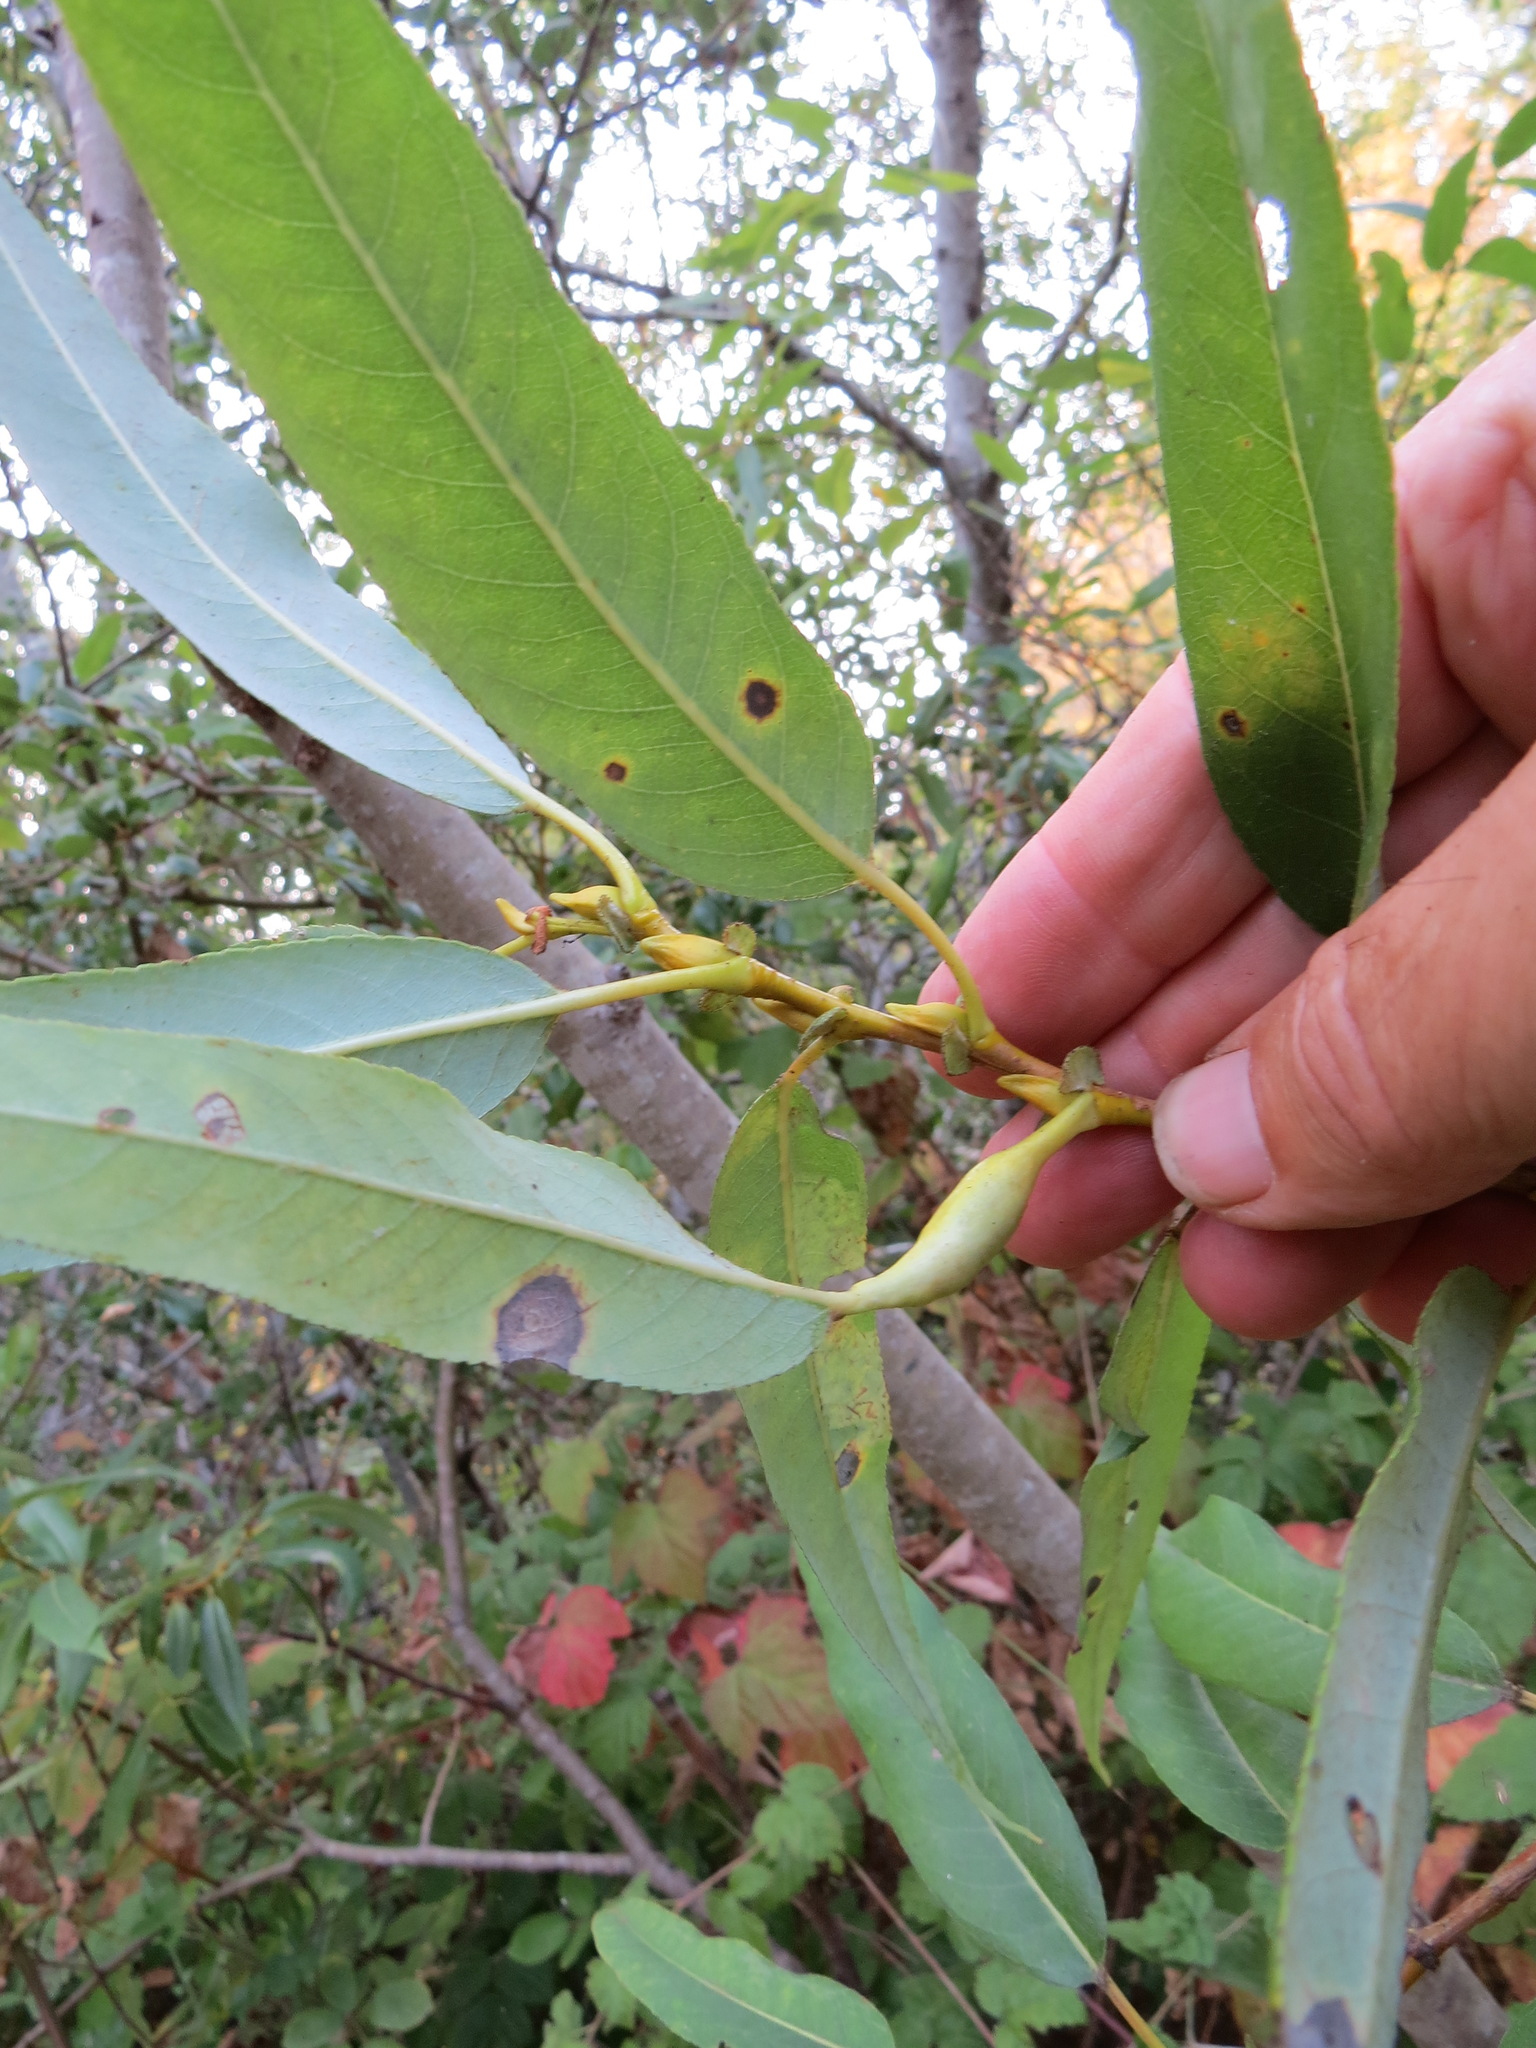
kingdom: Animalia
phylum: Arthropoda
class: Insecta
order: Diptera
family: Cecidomyiidae
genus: Rabdophaga
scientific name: Rabdophaga salicisbatatas
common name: Potato gall midge
